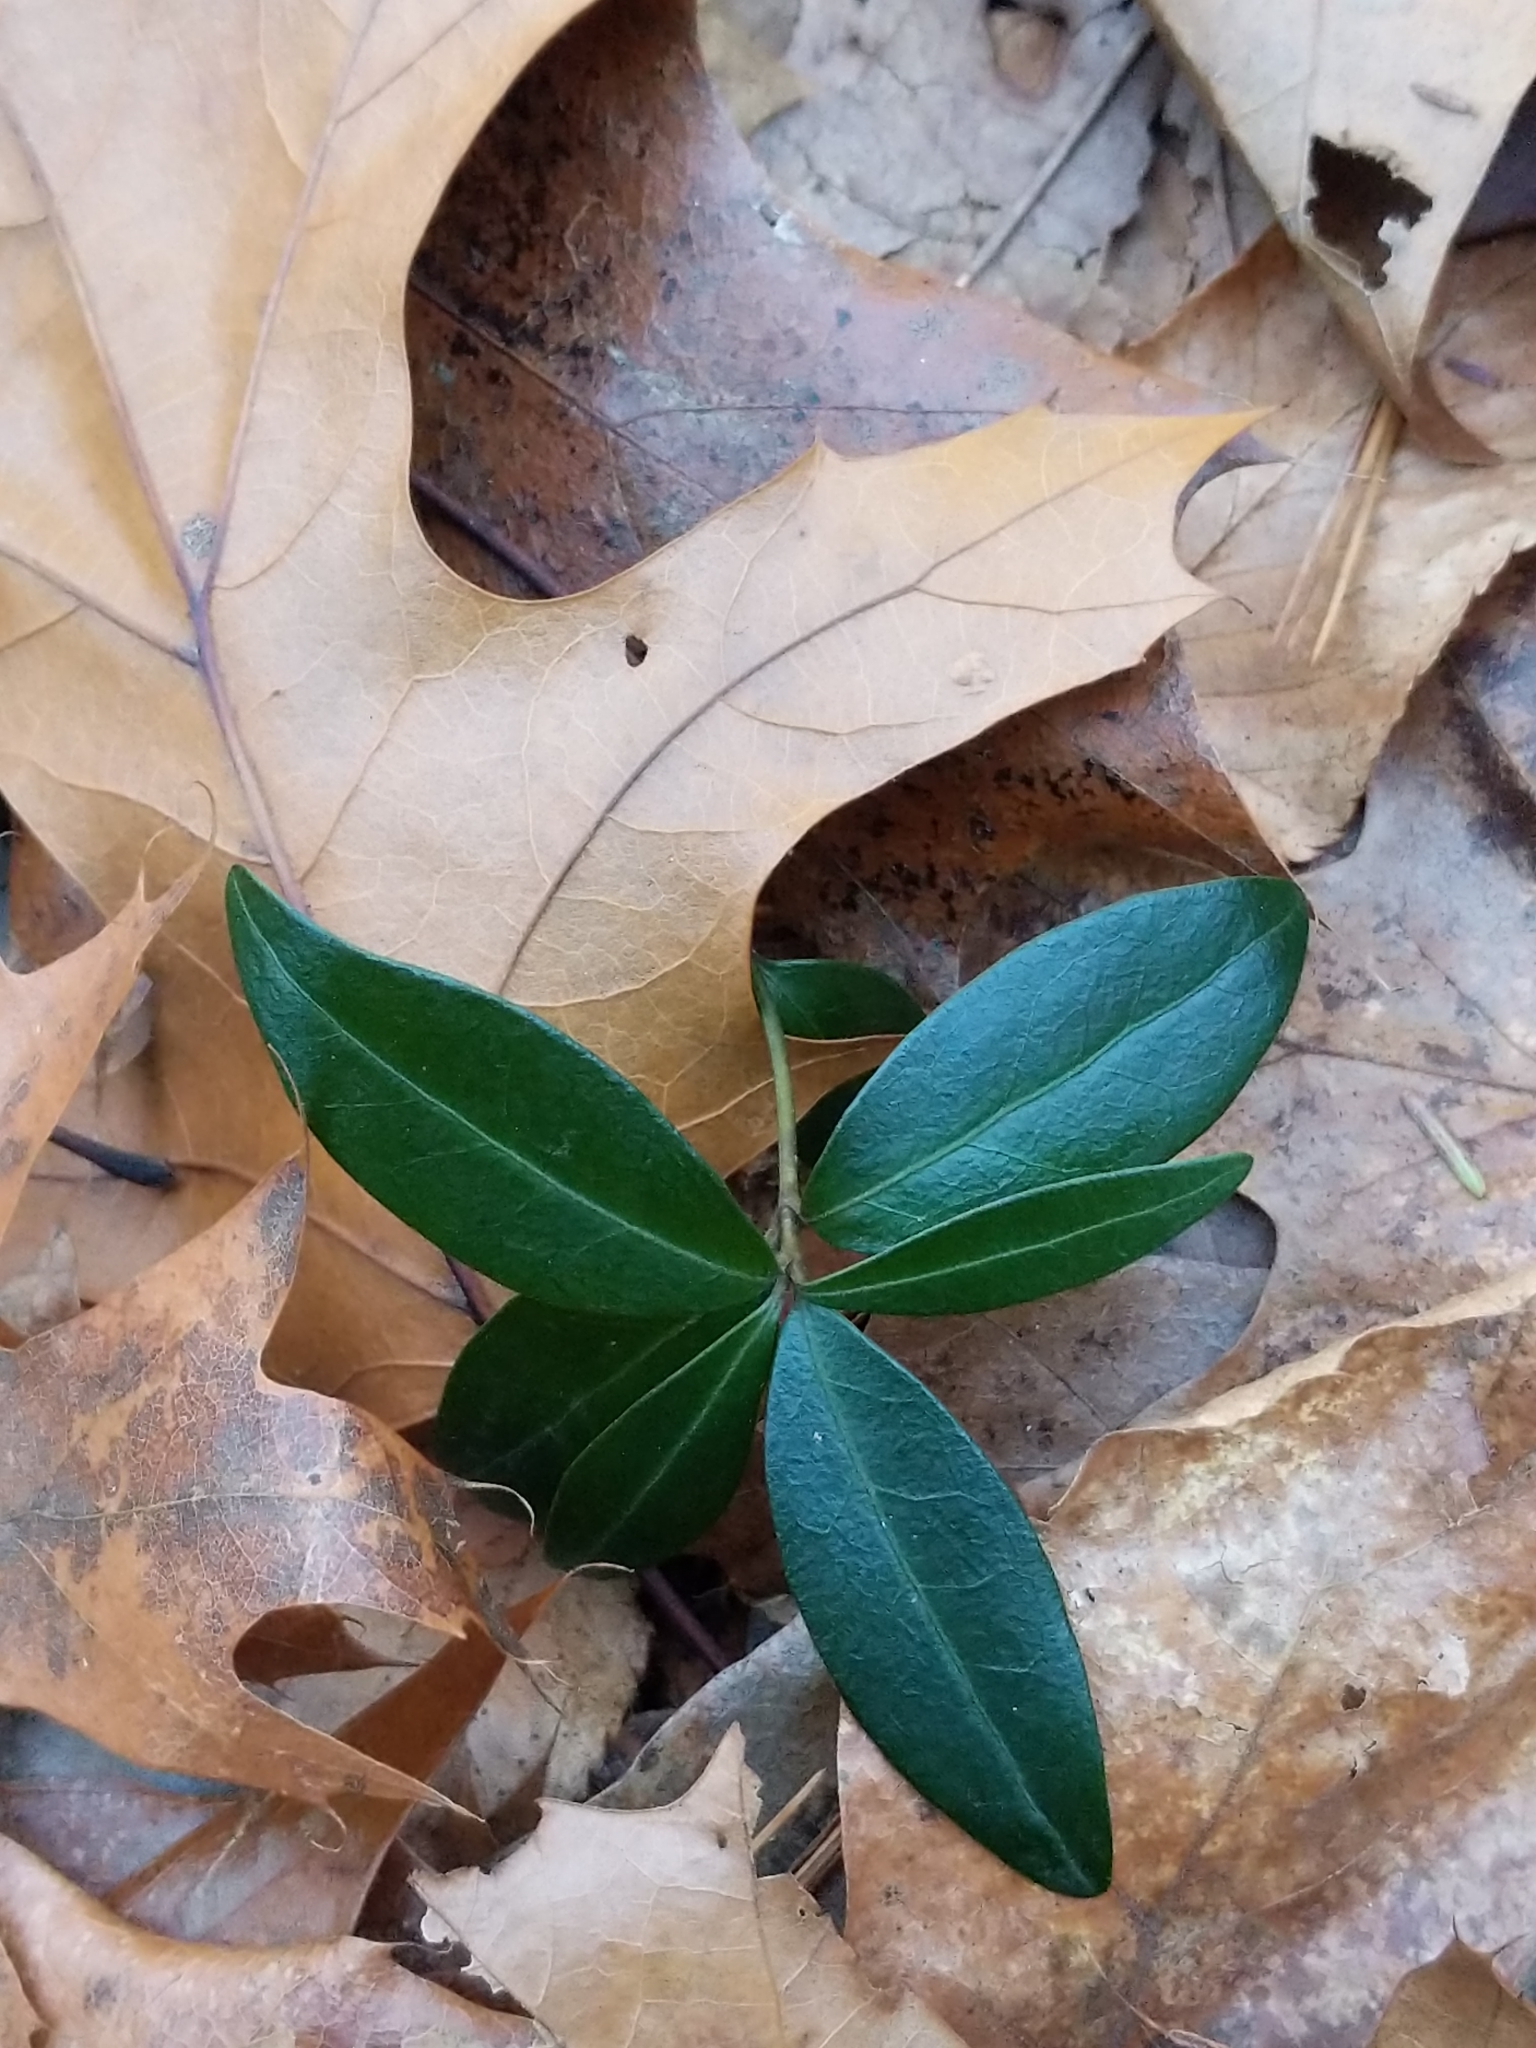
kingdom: Plantae
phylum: Tracheophyta
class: Magnoliopsida
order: Gentianales
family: Apocynaceae
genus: Vinca
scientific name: Vinca minor
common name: Lesser periwinkle
